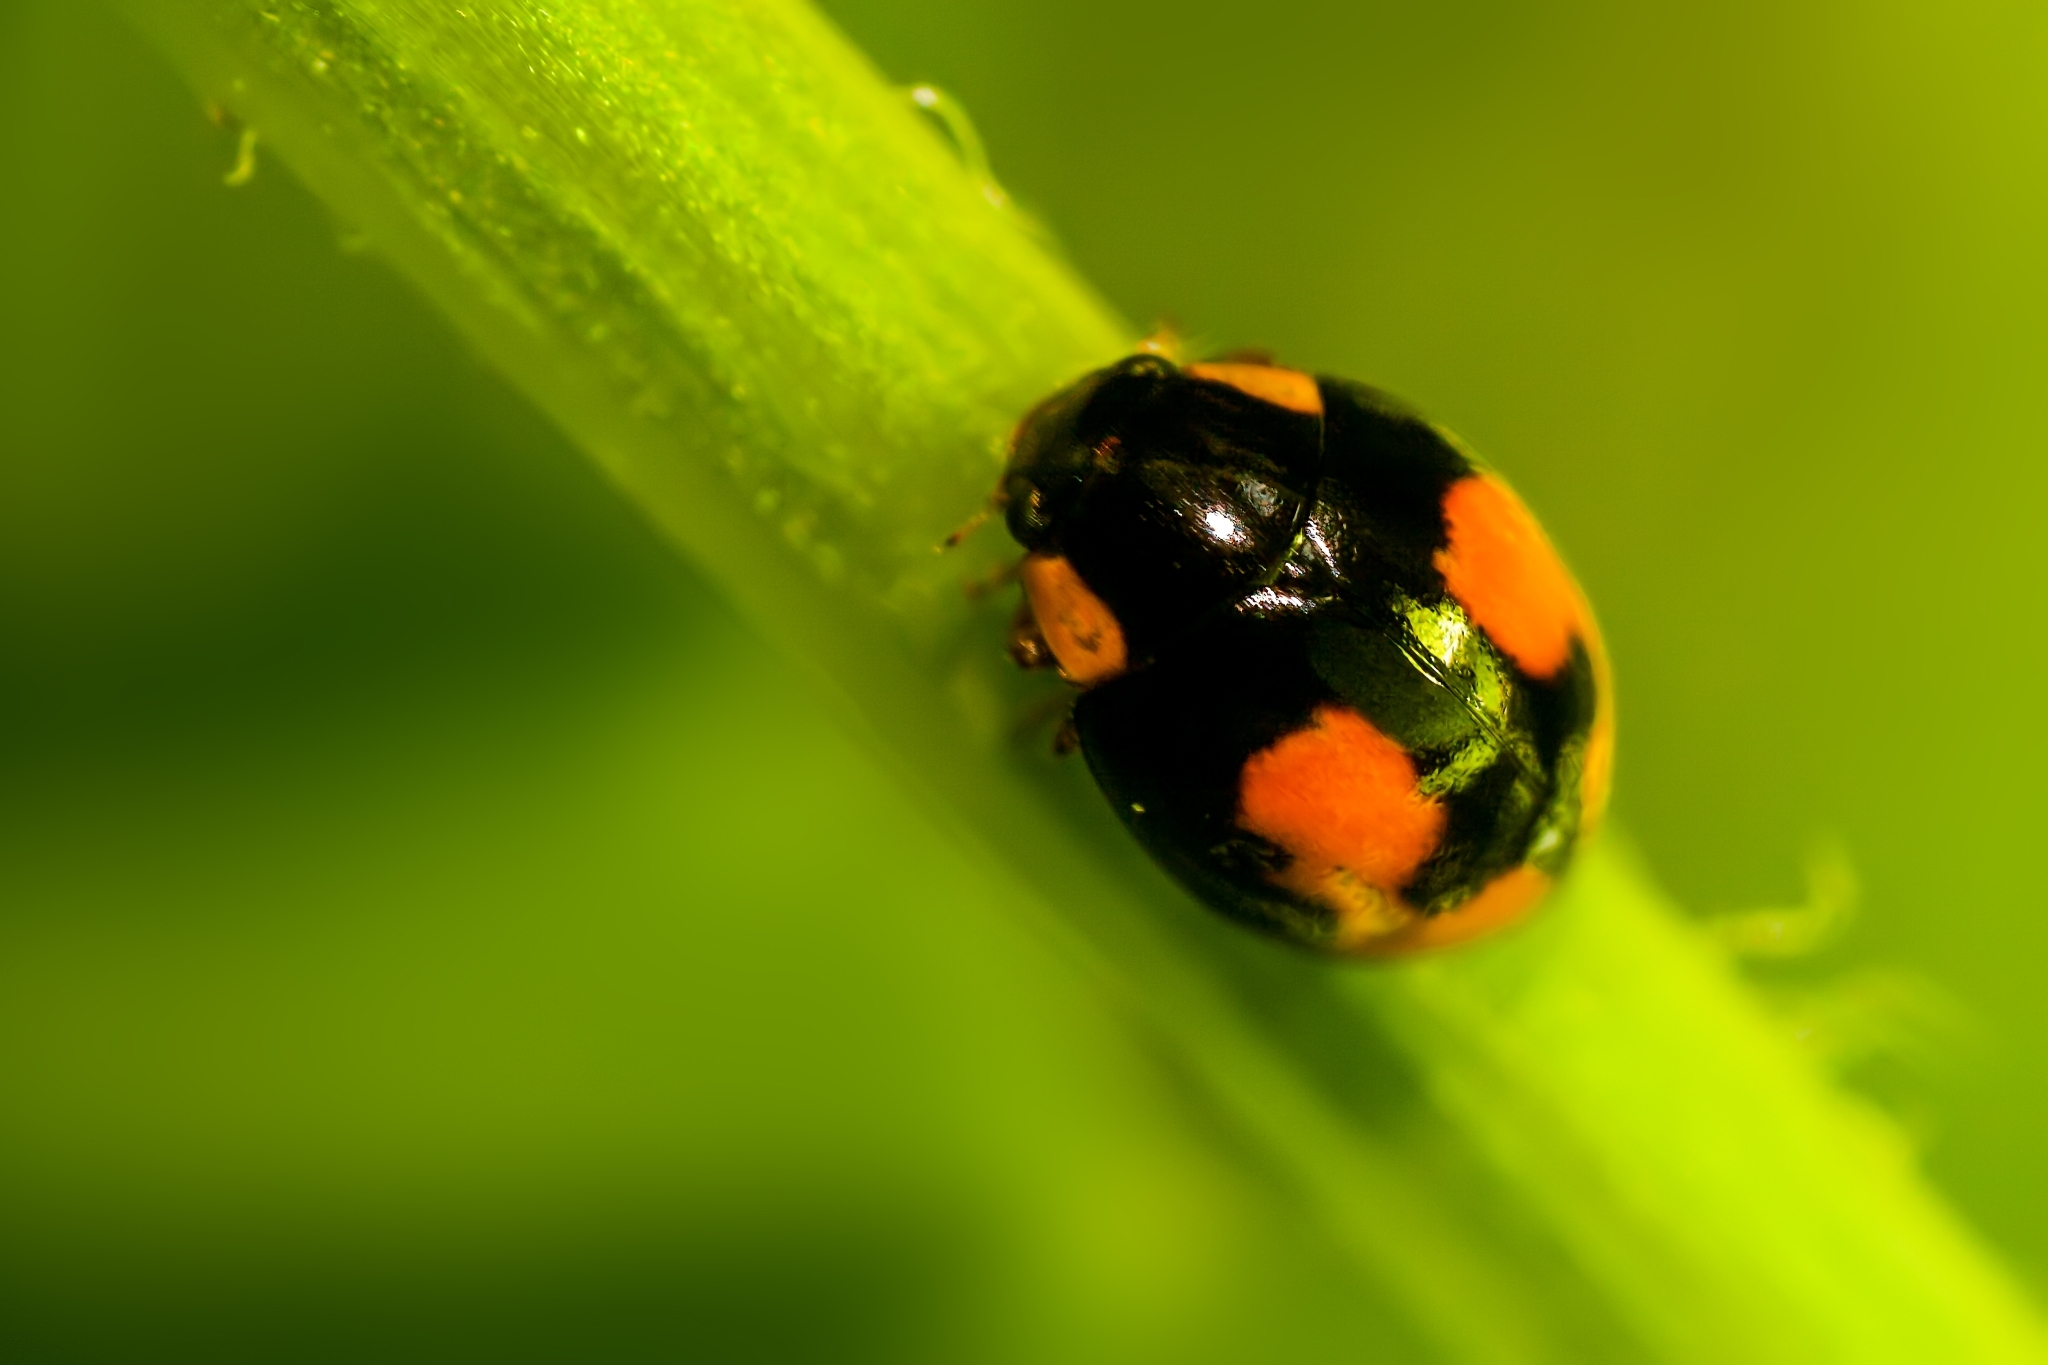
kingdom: Animalia
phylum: Arthropoda
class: Insecta
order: Coleoptera
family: Coccinellidae
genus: Hyperaspis
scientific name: Hyperaspis connectens
